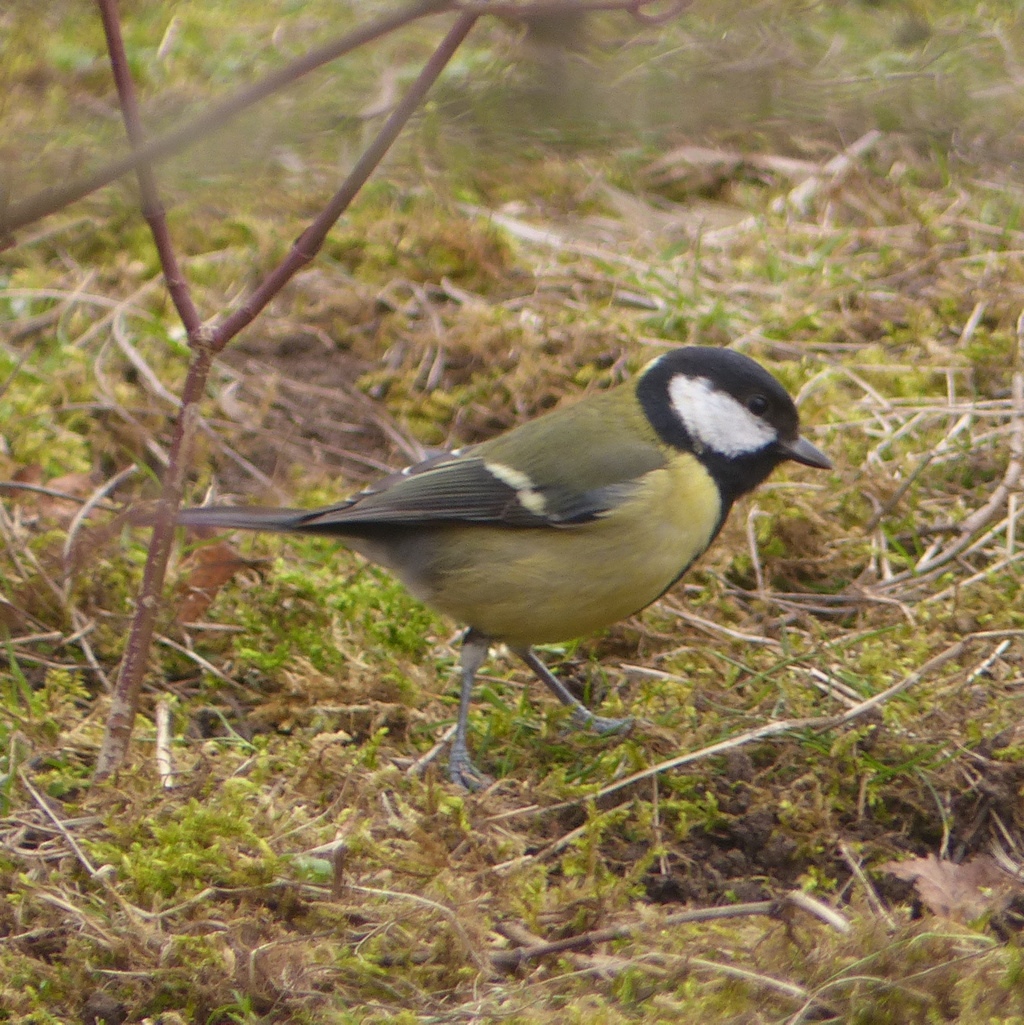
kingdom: Animalia
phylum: Chordata
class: Aves
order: Passeriformes
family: Paridae
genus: Parus
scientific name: Parus major
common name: Great tit
